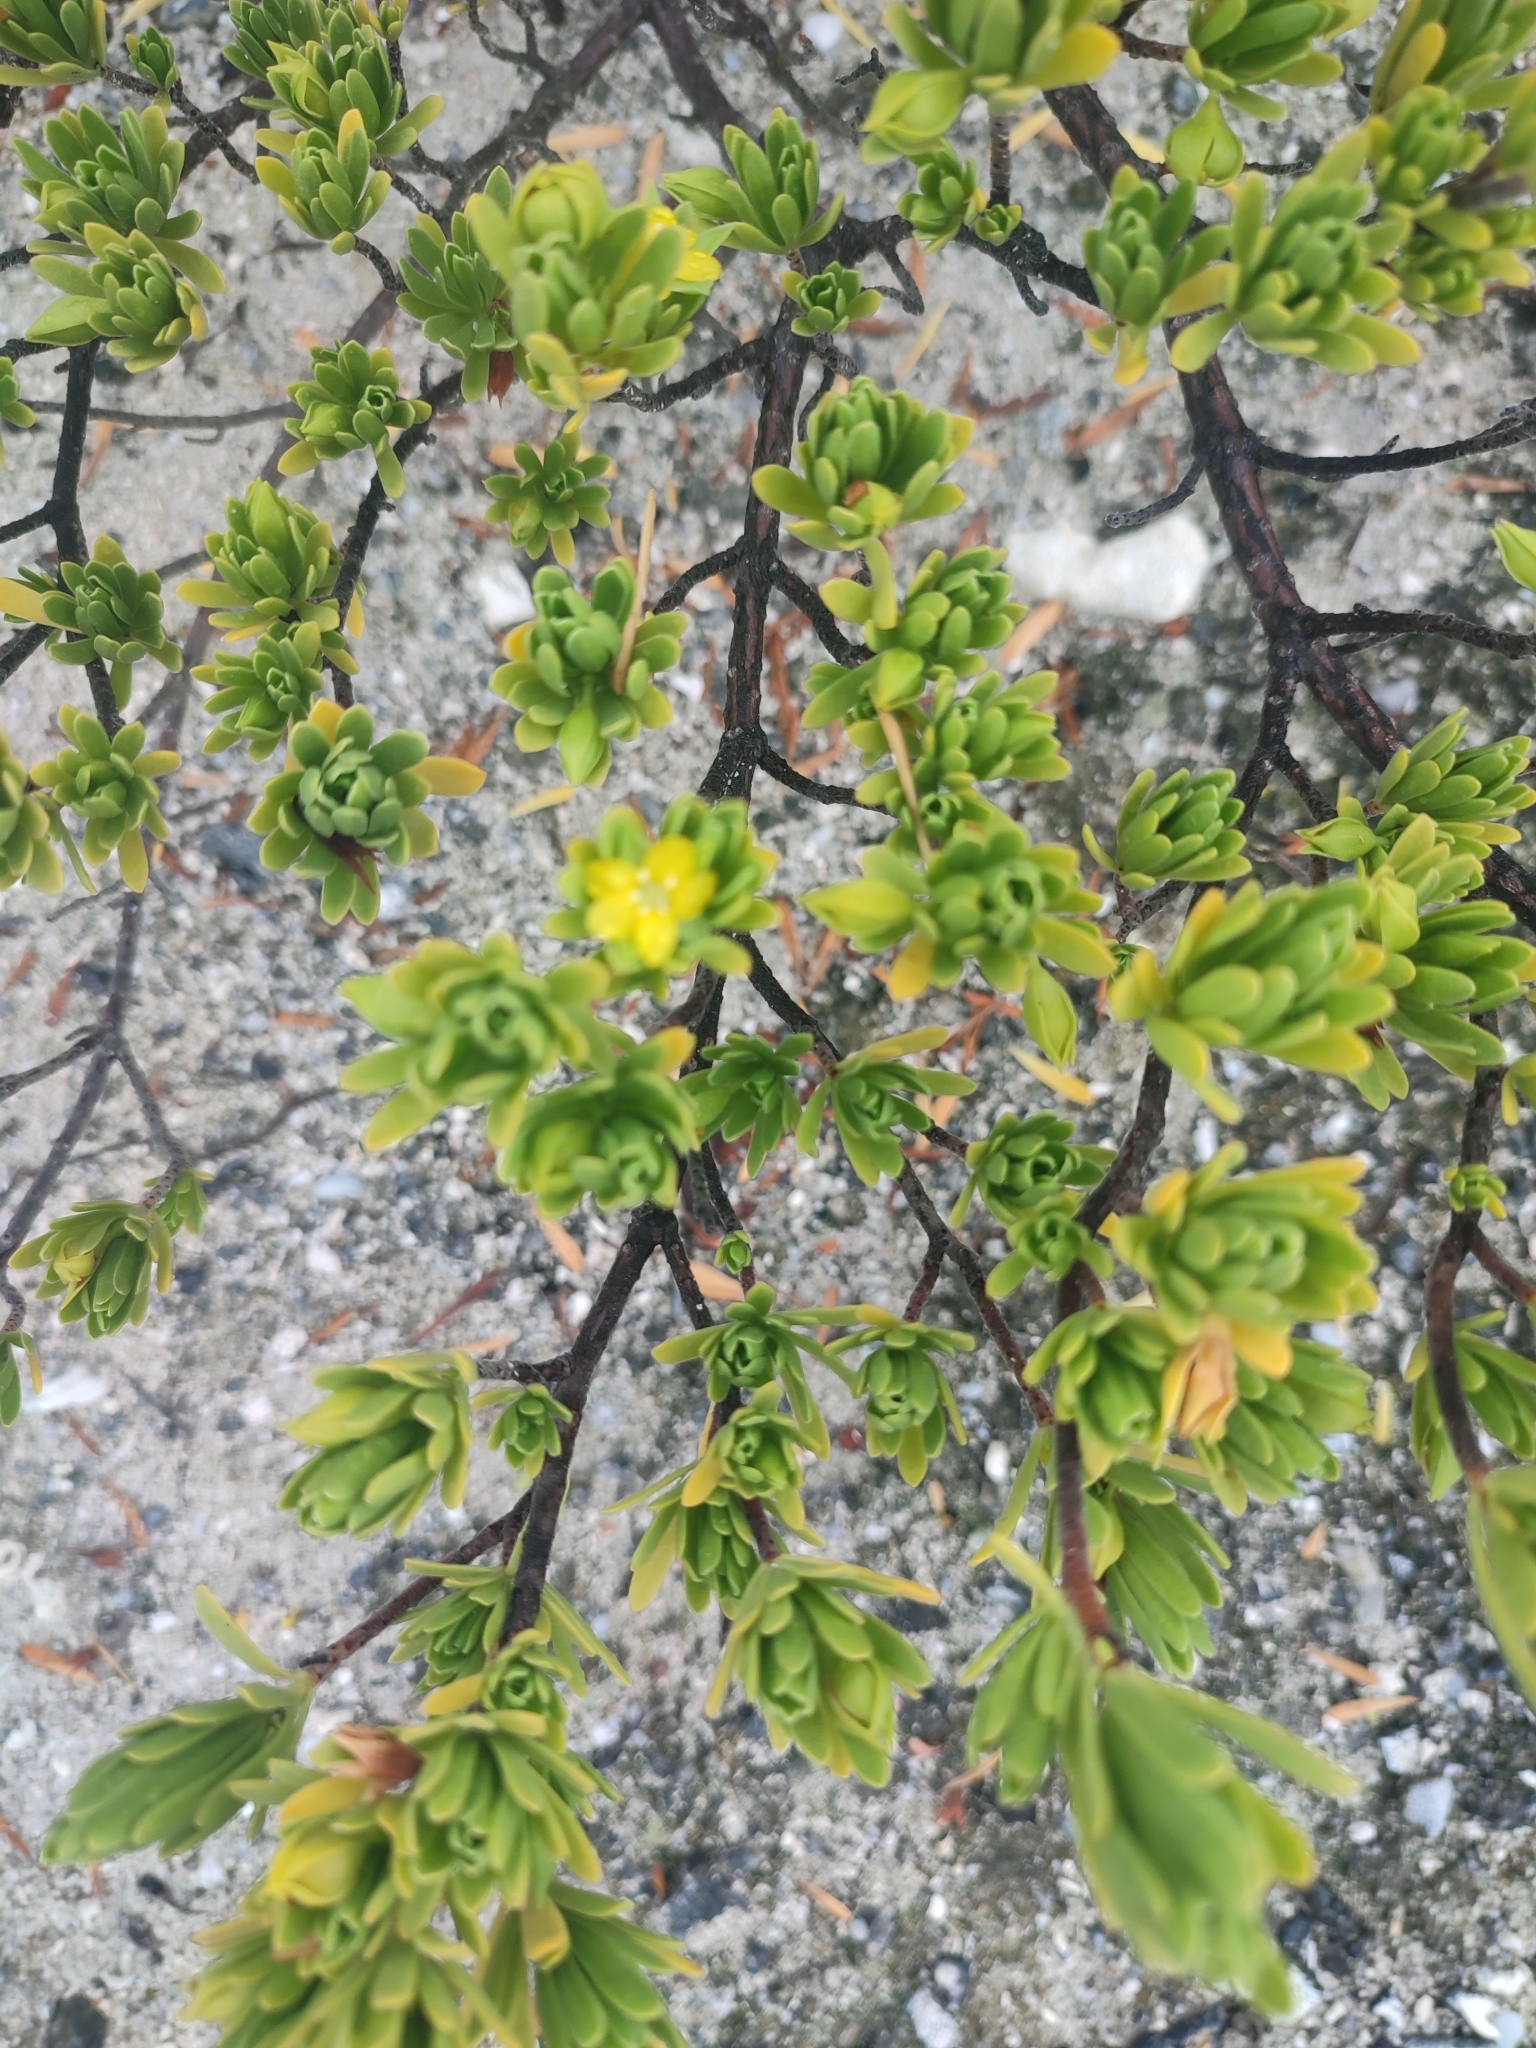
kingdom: Plantae
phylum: Tracheophyta
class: Magnoliopsida
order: Fabales
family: Surianaceae
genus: Suriana
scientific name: Suriana maritima
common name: Bay-cedar
